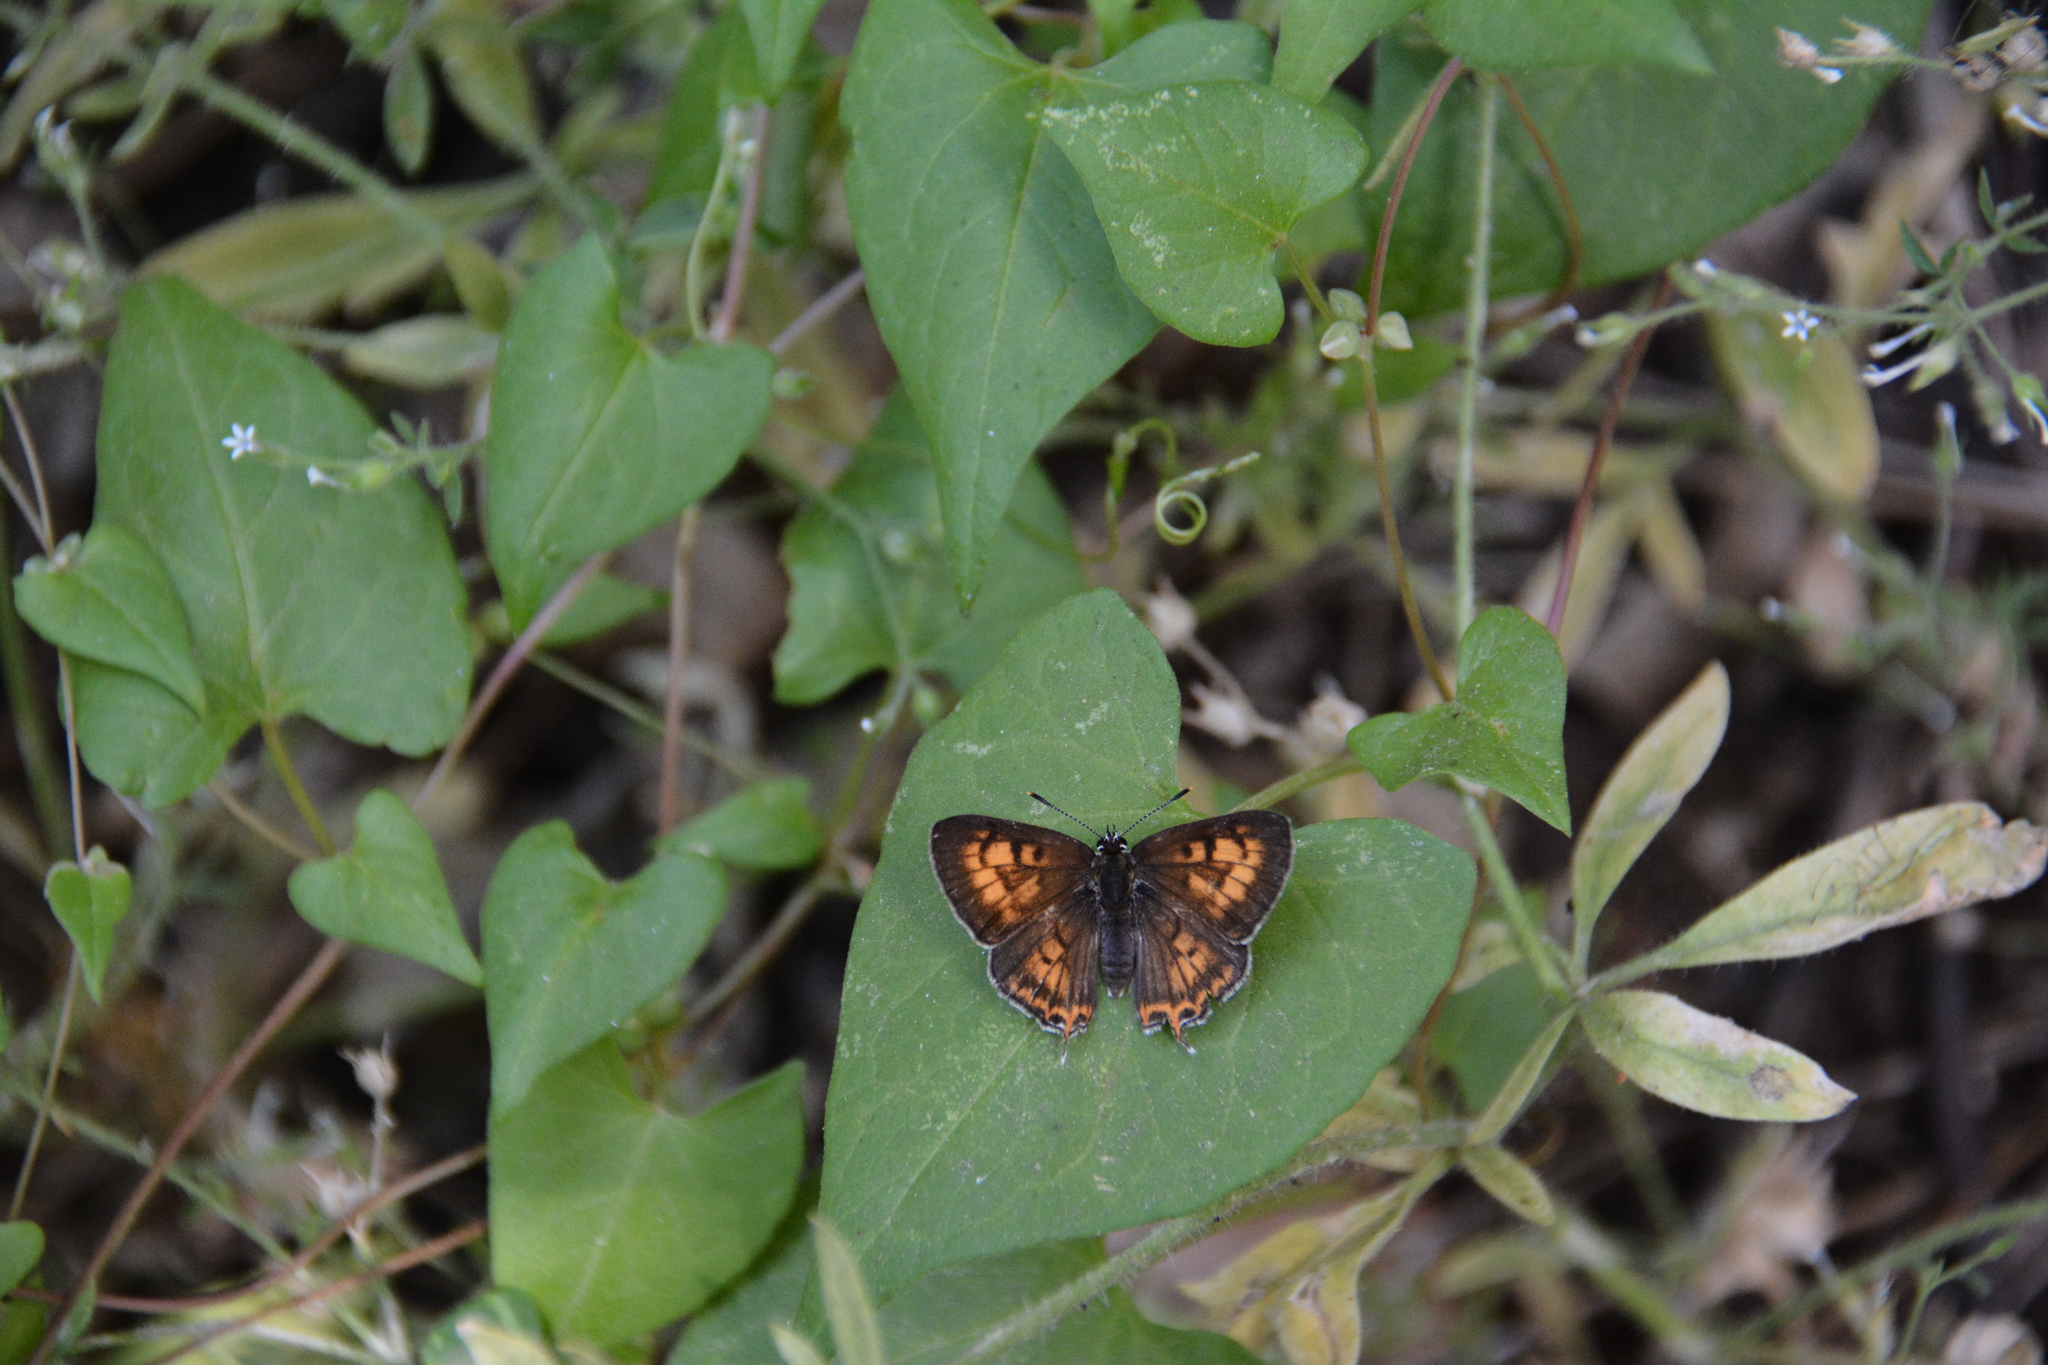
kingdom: Animalia
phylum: Arthropoda
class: Insecta
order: Lepidoptera
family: Lycaenidae
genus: Tharsalea
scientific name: Tharsalea arota
